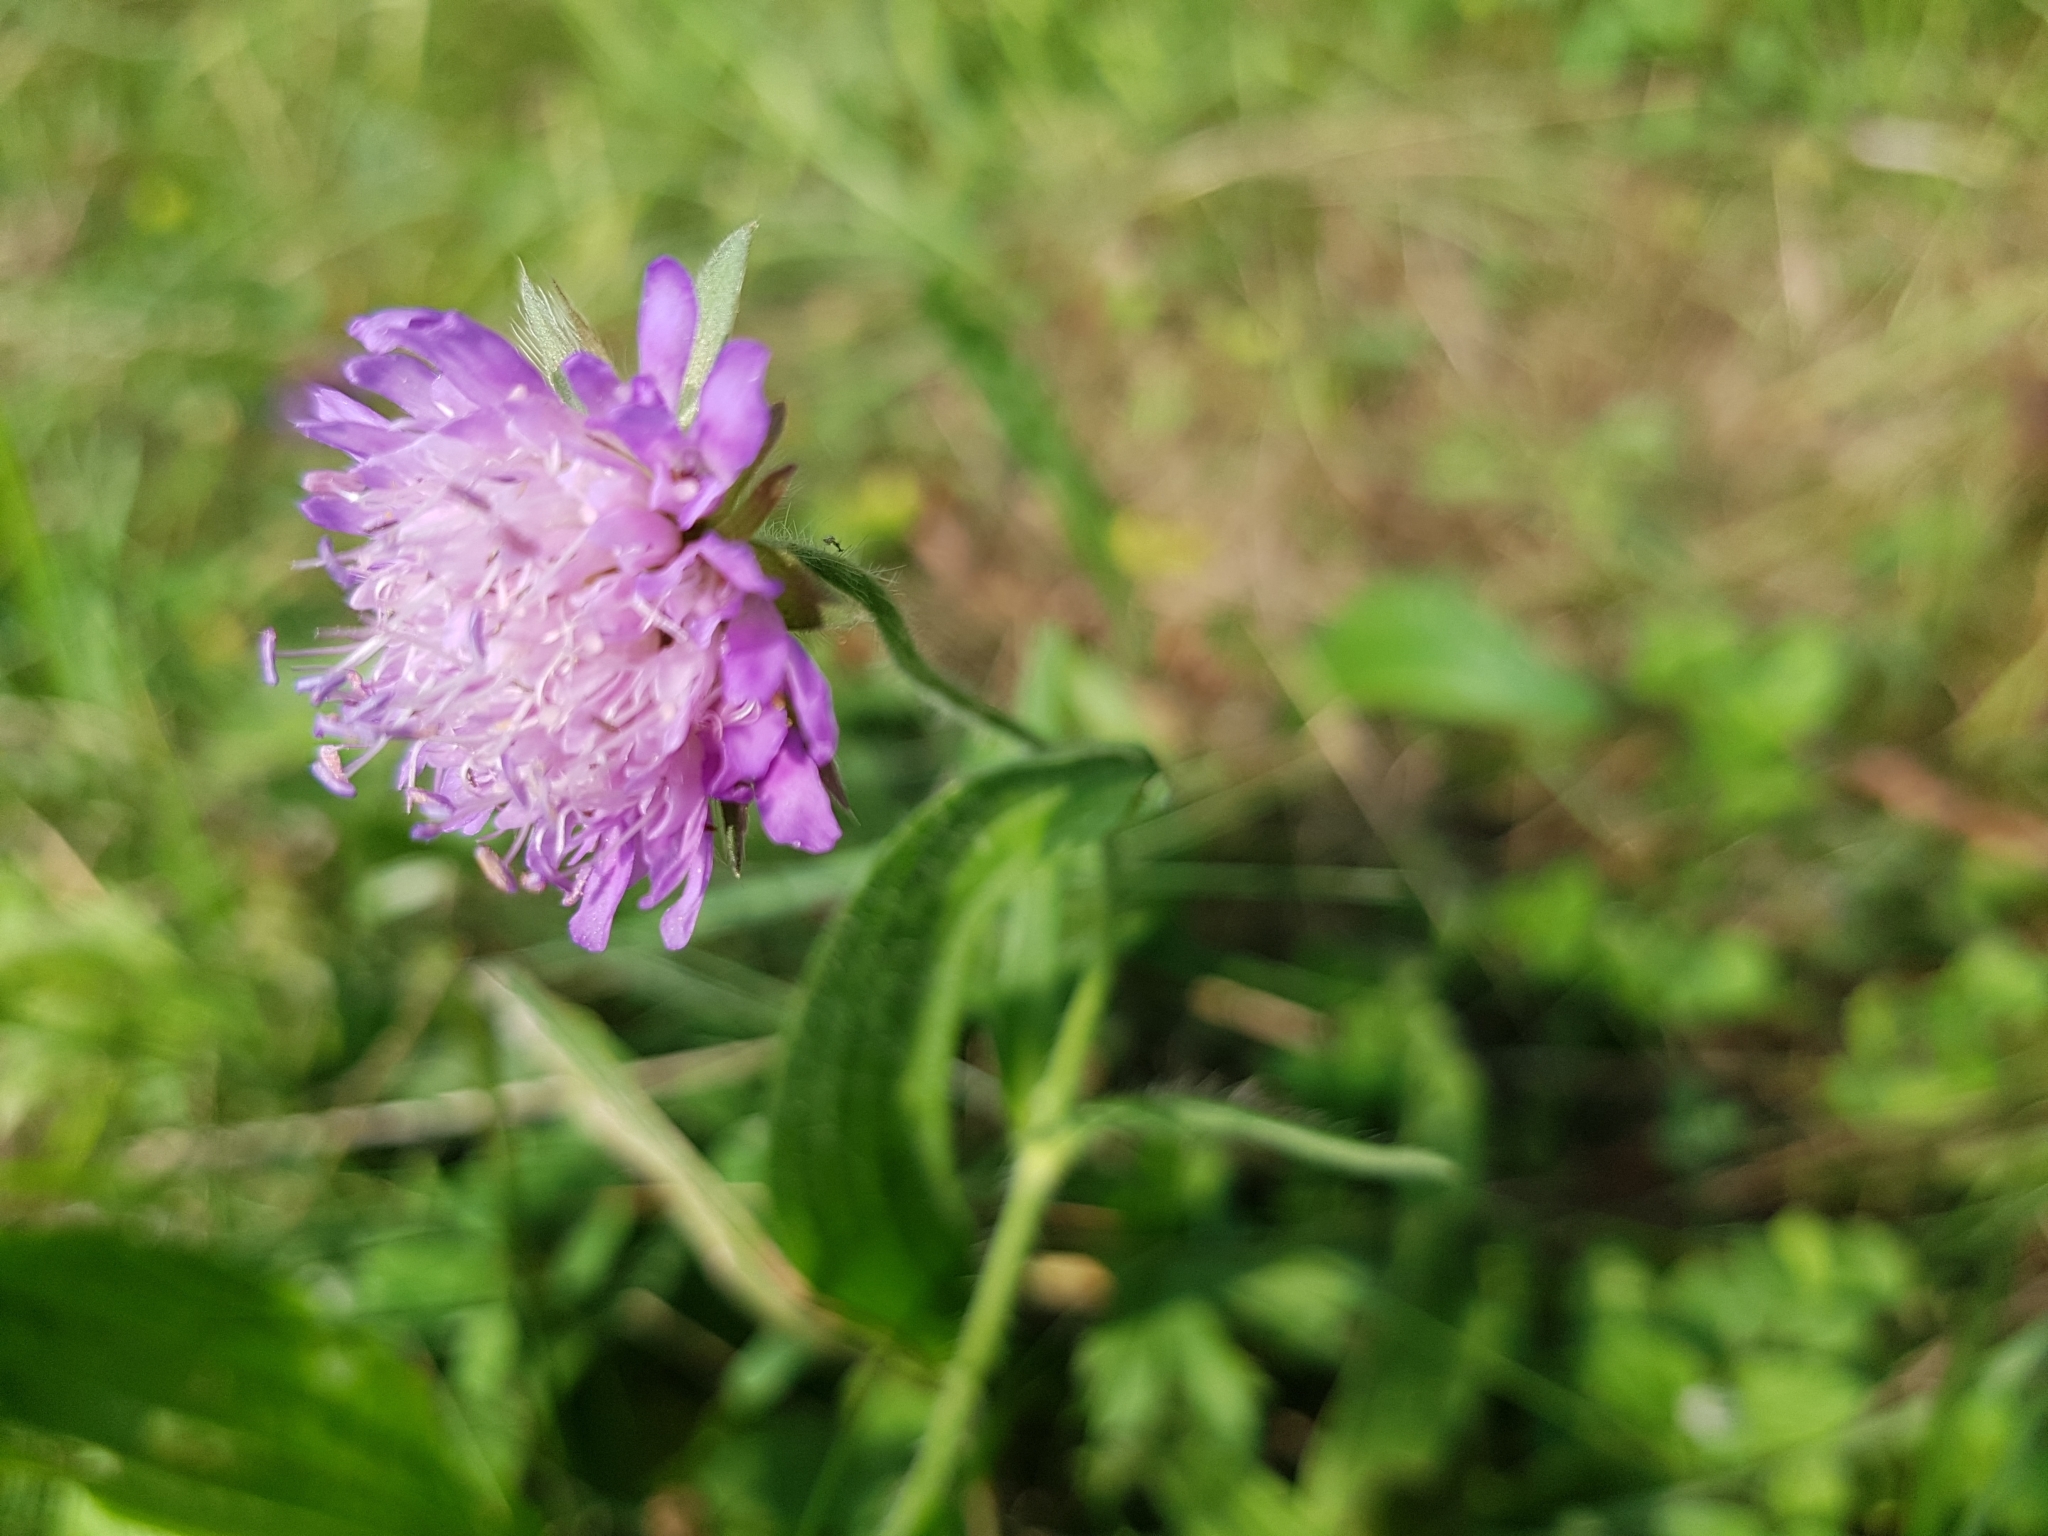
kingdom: Plantae
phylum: Tracheophyta
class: Magnoliopsida
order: Dipsacales
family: Caprifoliaceae
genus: Knautia
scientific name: Knautia arvensis
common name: Field scabiosa
